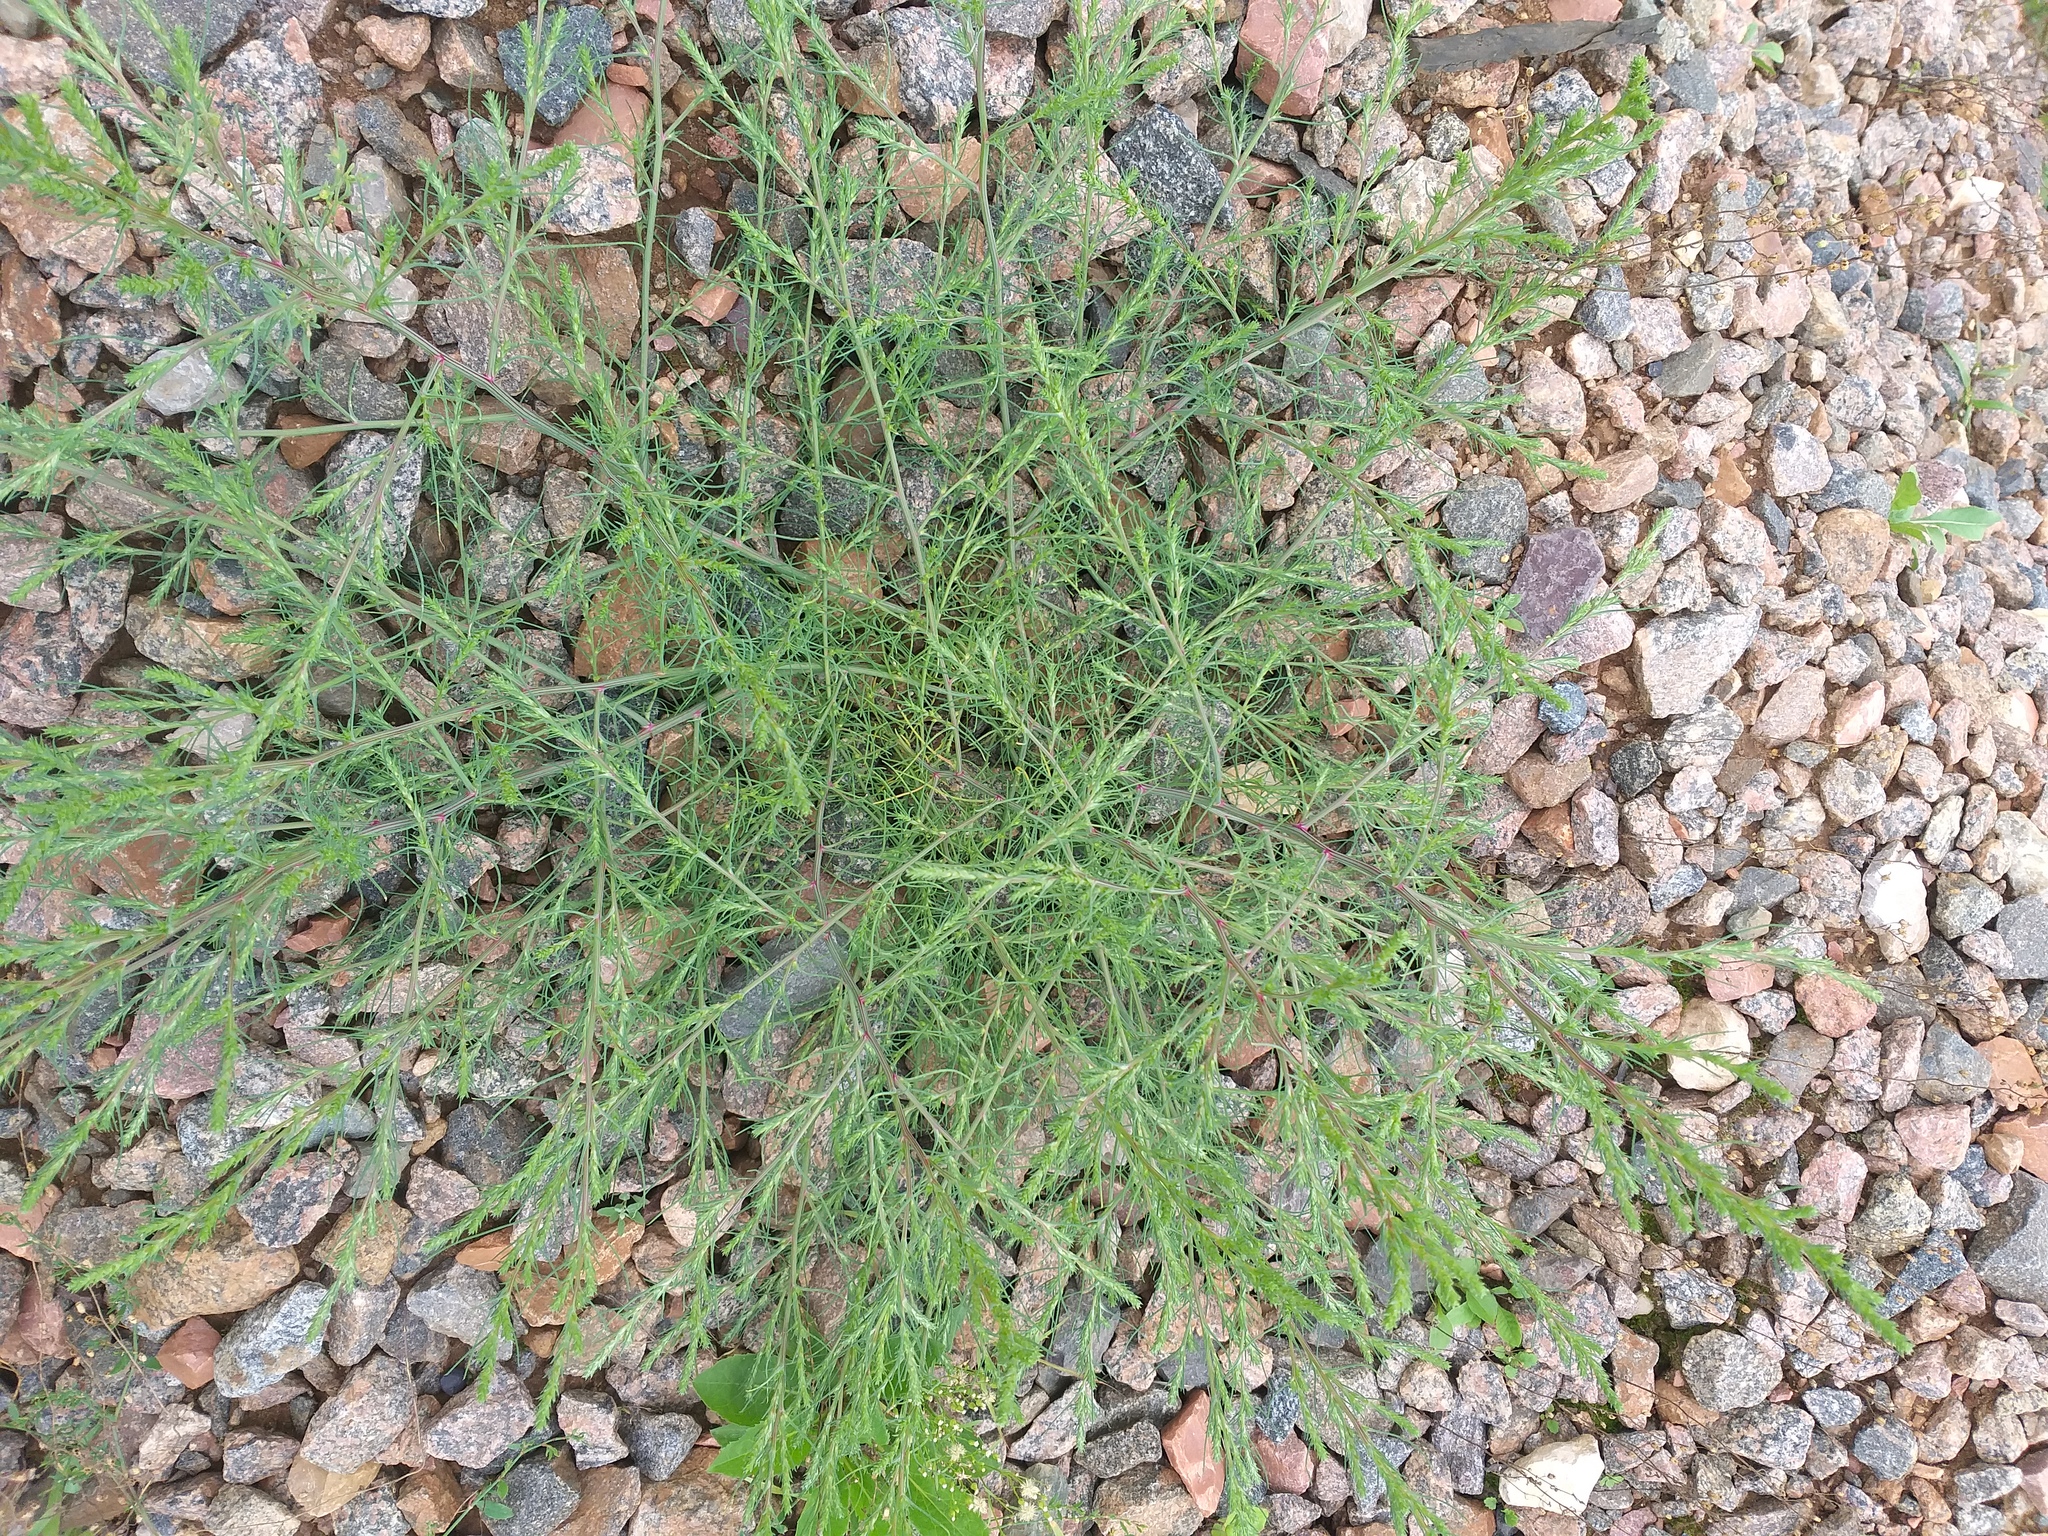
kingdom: Plantae
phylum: Tracheophyta
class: Magnoliopsida
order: Caryophyllales
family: Amaranthaceae
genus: Salsola
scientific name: Salsola collina
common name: Tumbleweed
